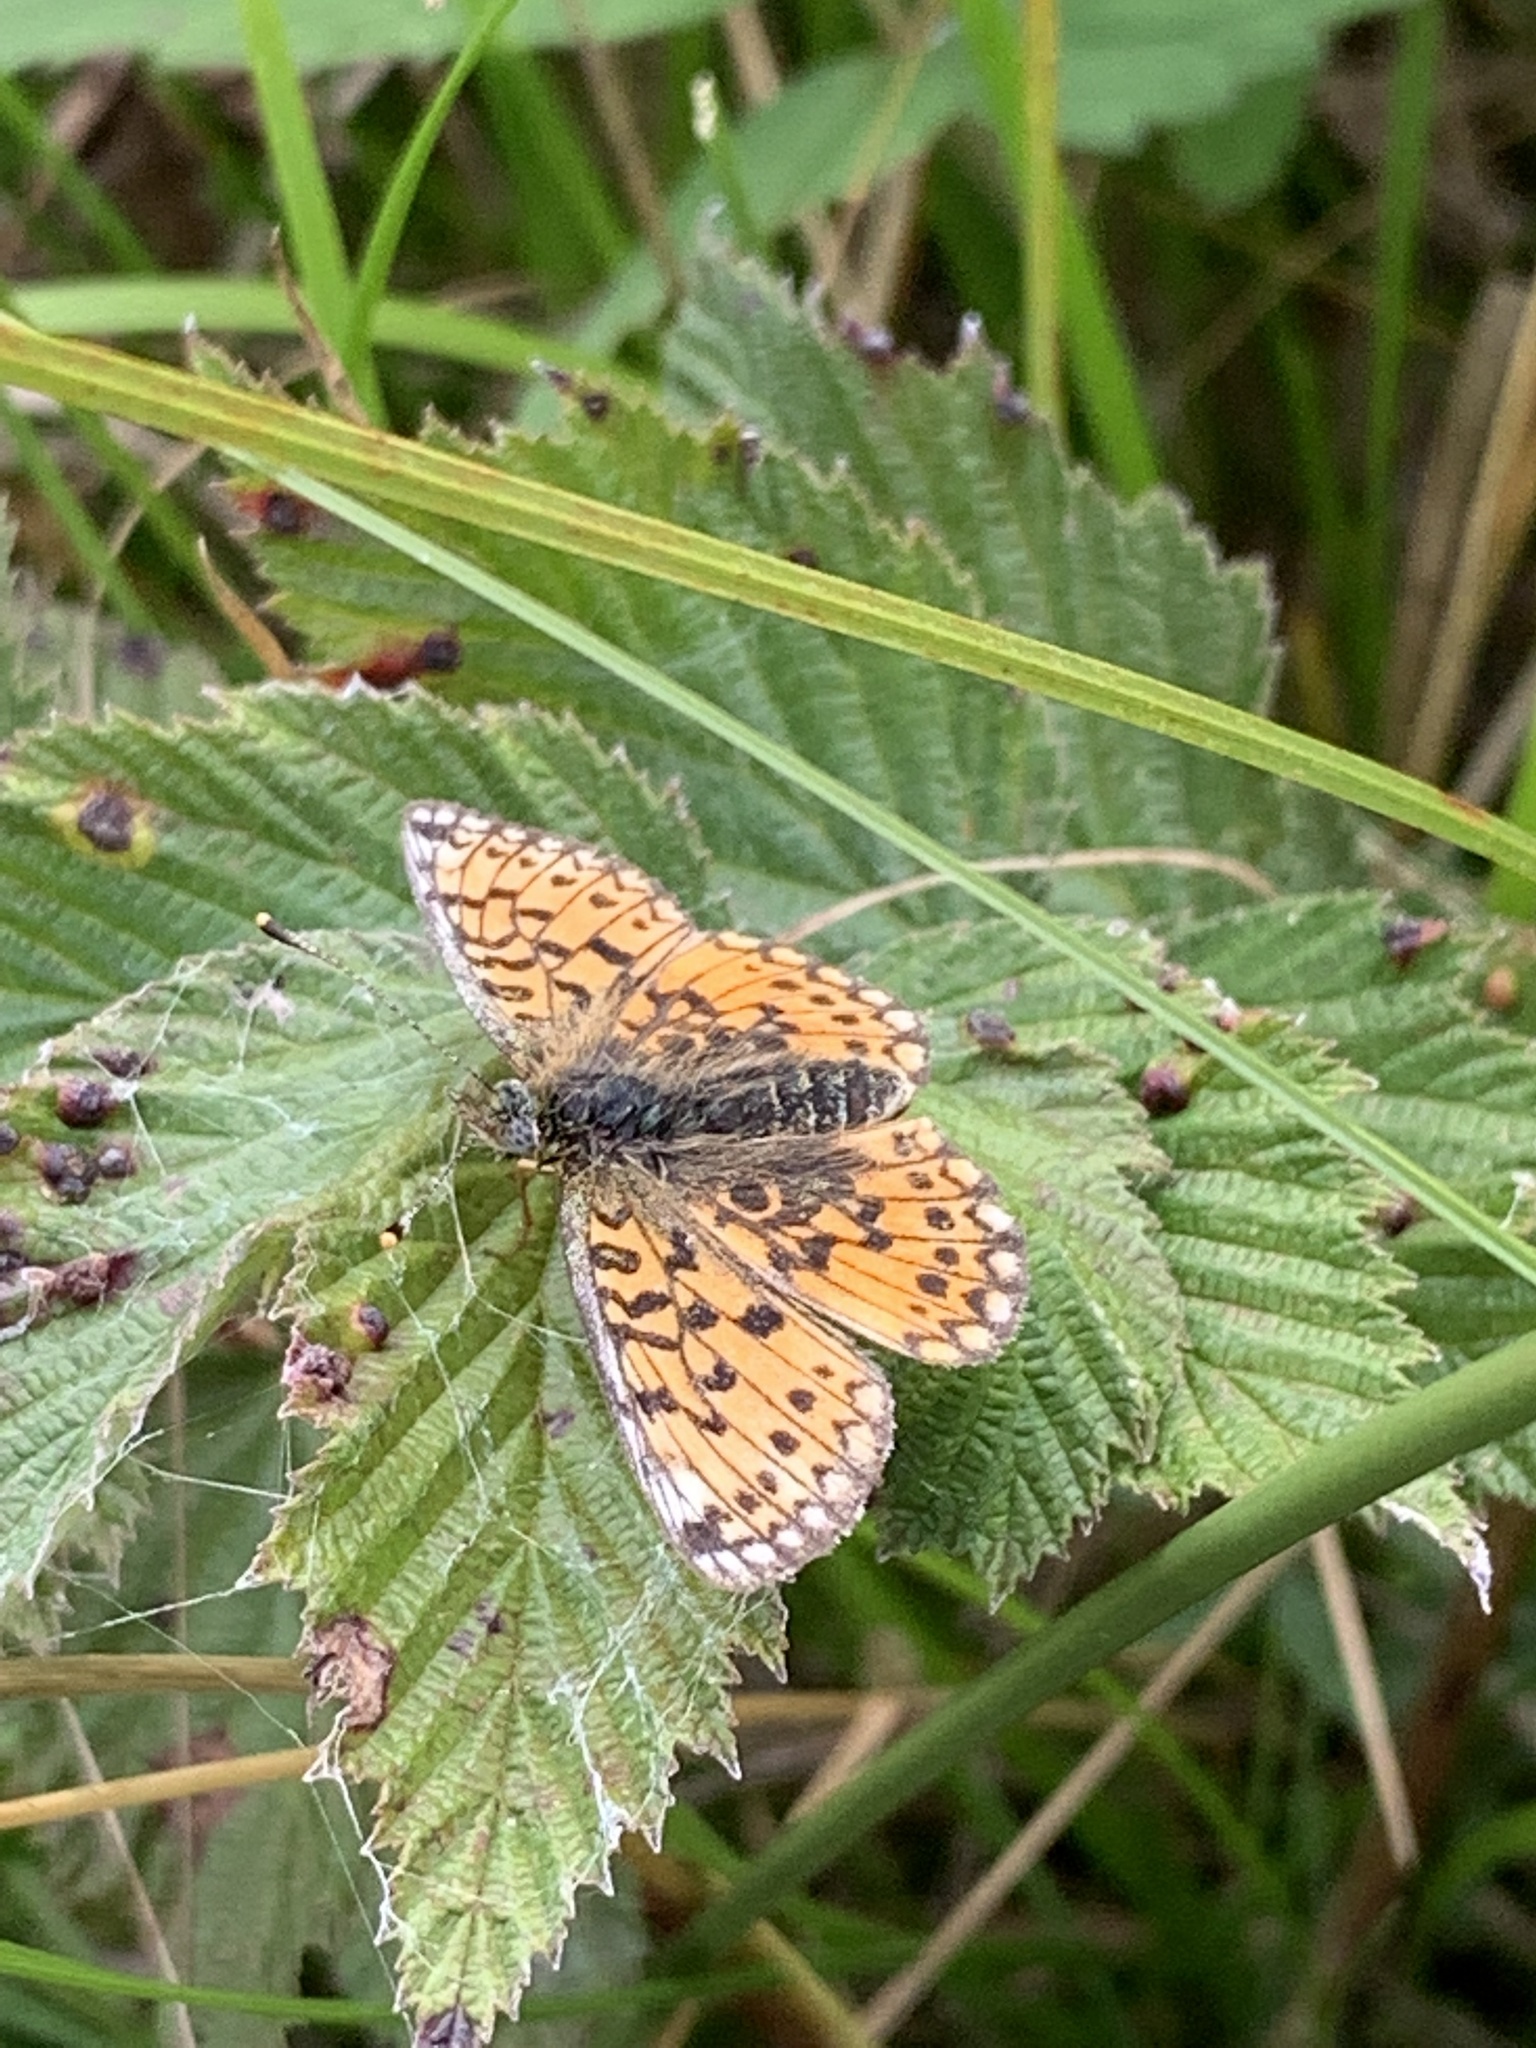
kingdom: Animalia
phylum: Arthropoda
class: Insecta
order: Lepidoptera
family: Nymphalidae
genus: Boloria
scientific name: Boloria selene
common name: Small pearl-bordered fritillary
